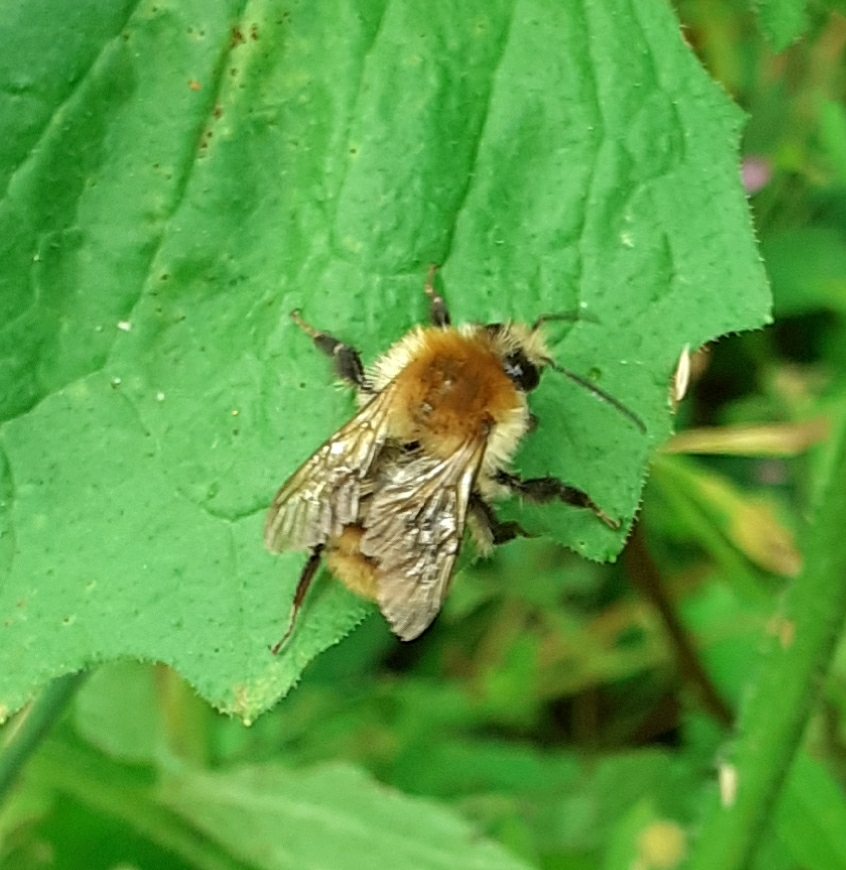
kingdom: Animalia
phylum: Arthropoda
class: Insecta
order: Hymenoptera
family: Apidae
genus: Bombus
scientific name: Bombus pascuorum
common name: Common carder bee
